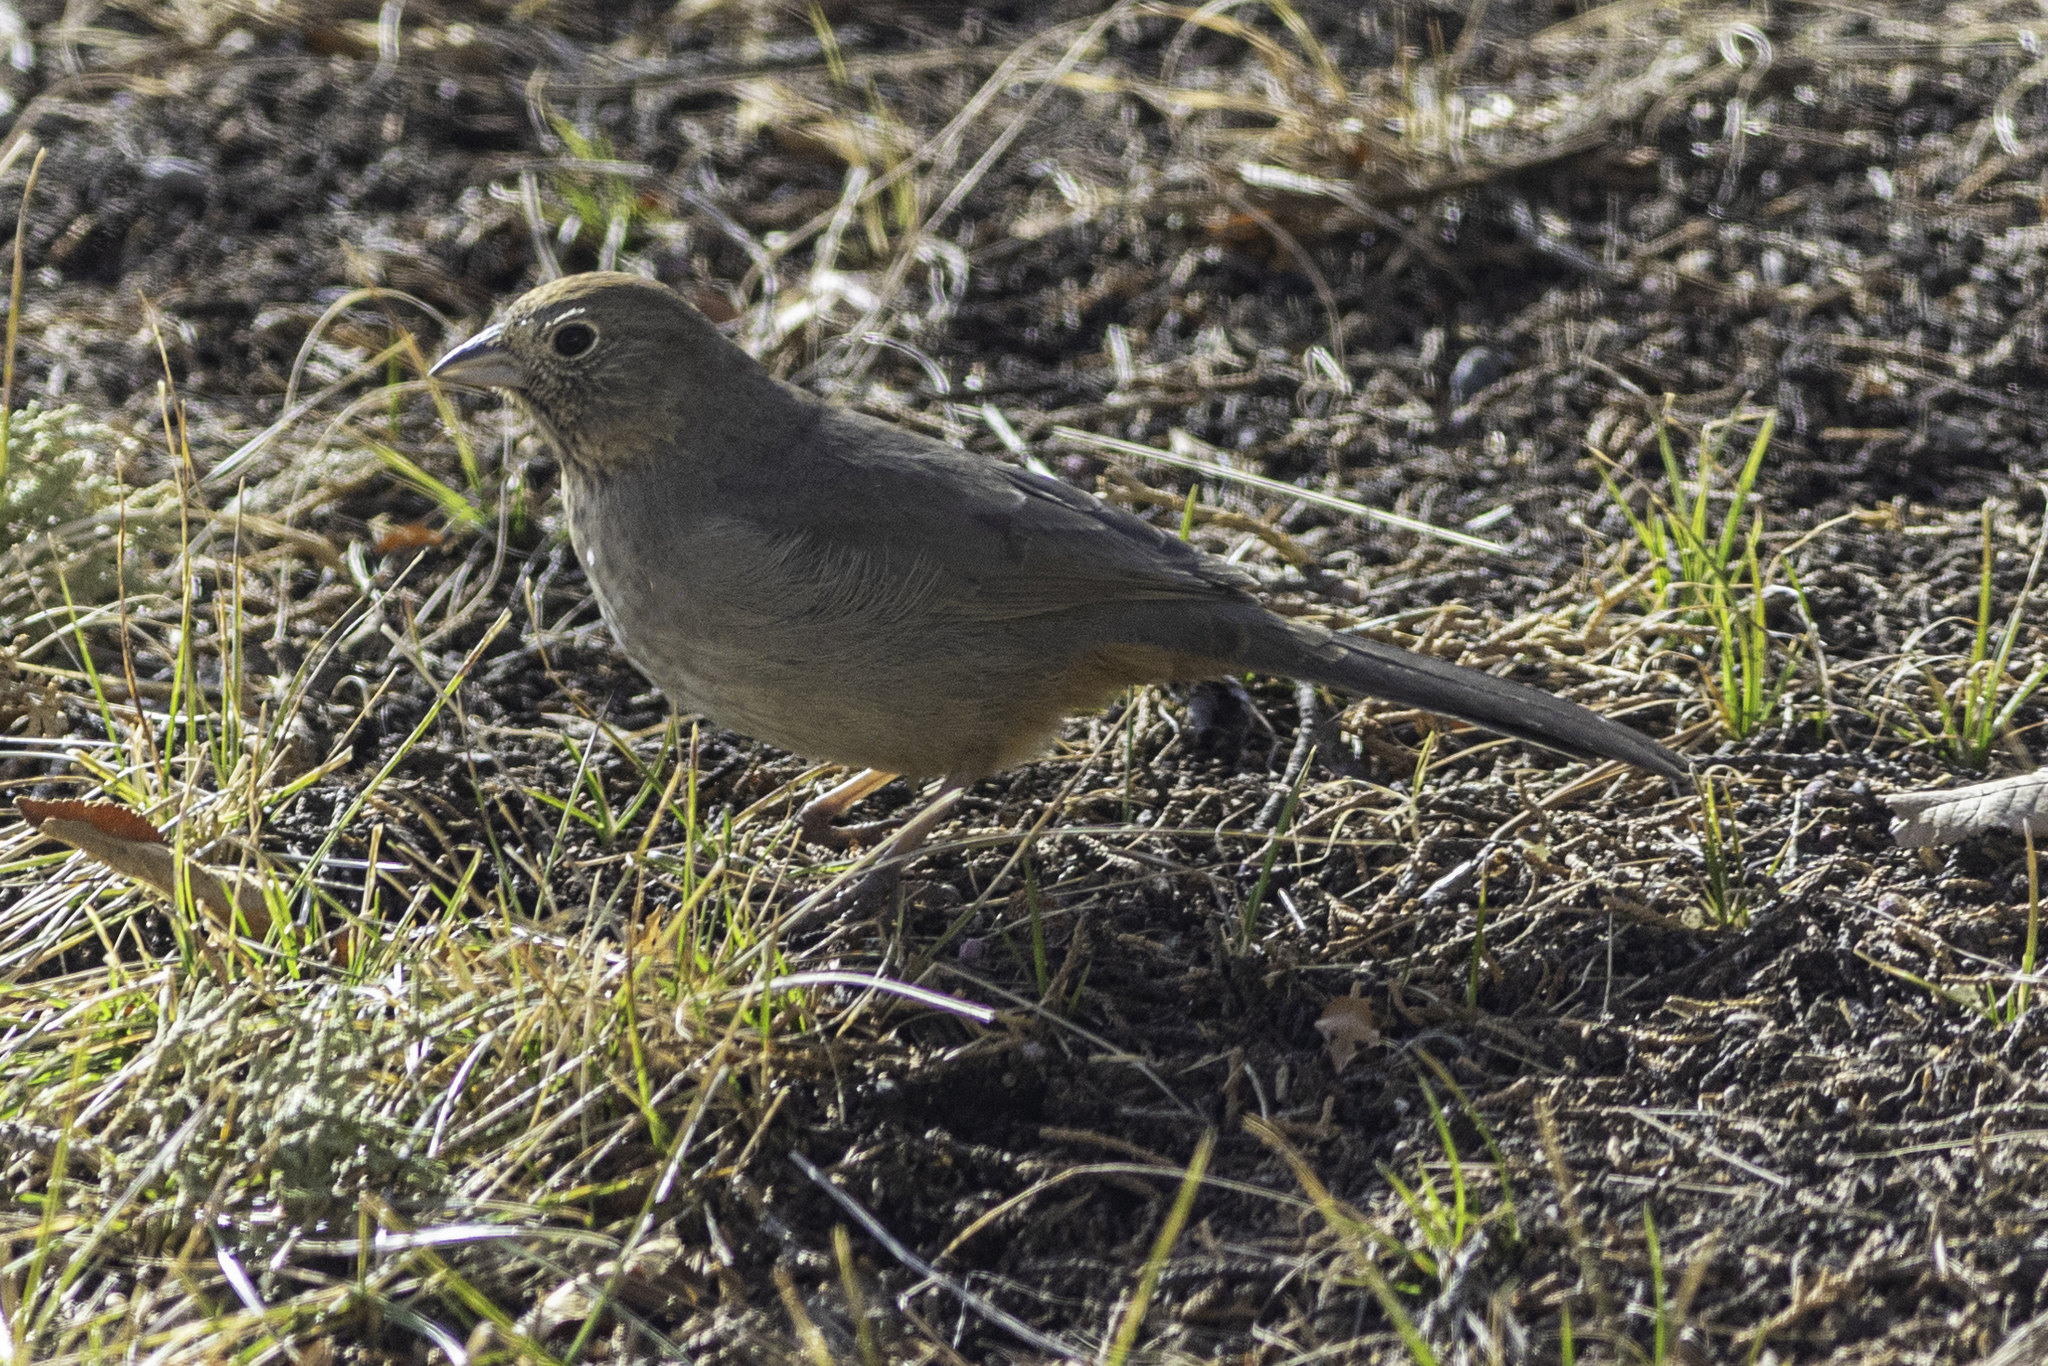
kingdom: Animalia
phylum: Chordata
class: Aves
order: Passeriformes
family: Passerellidae
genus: Melozone
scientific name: Melozone fusca
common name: Canyon towhee
